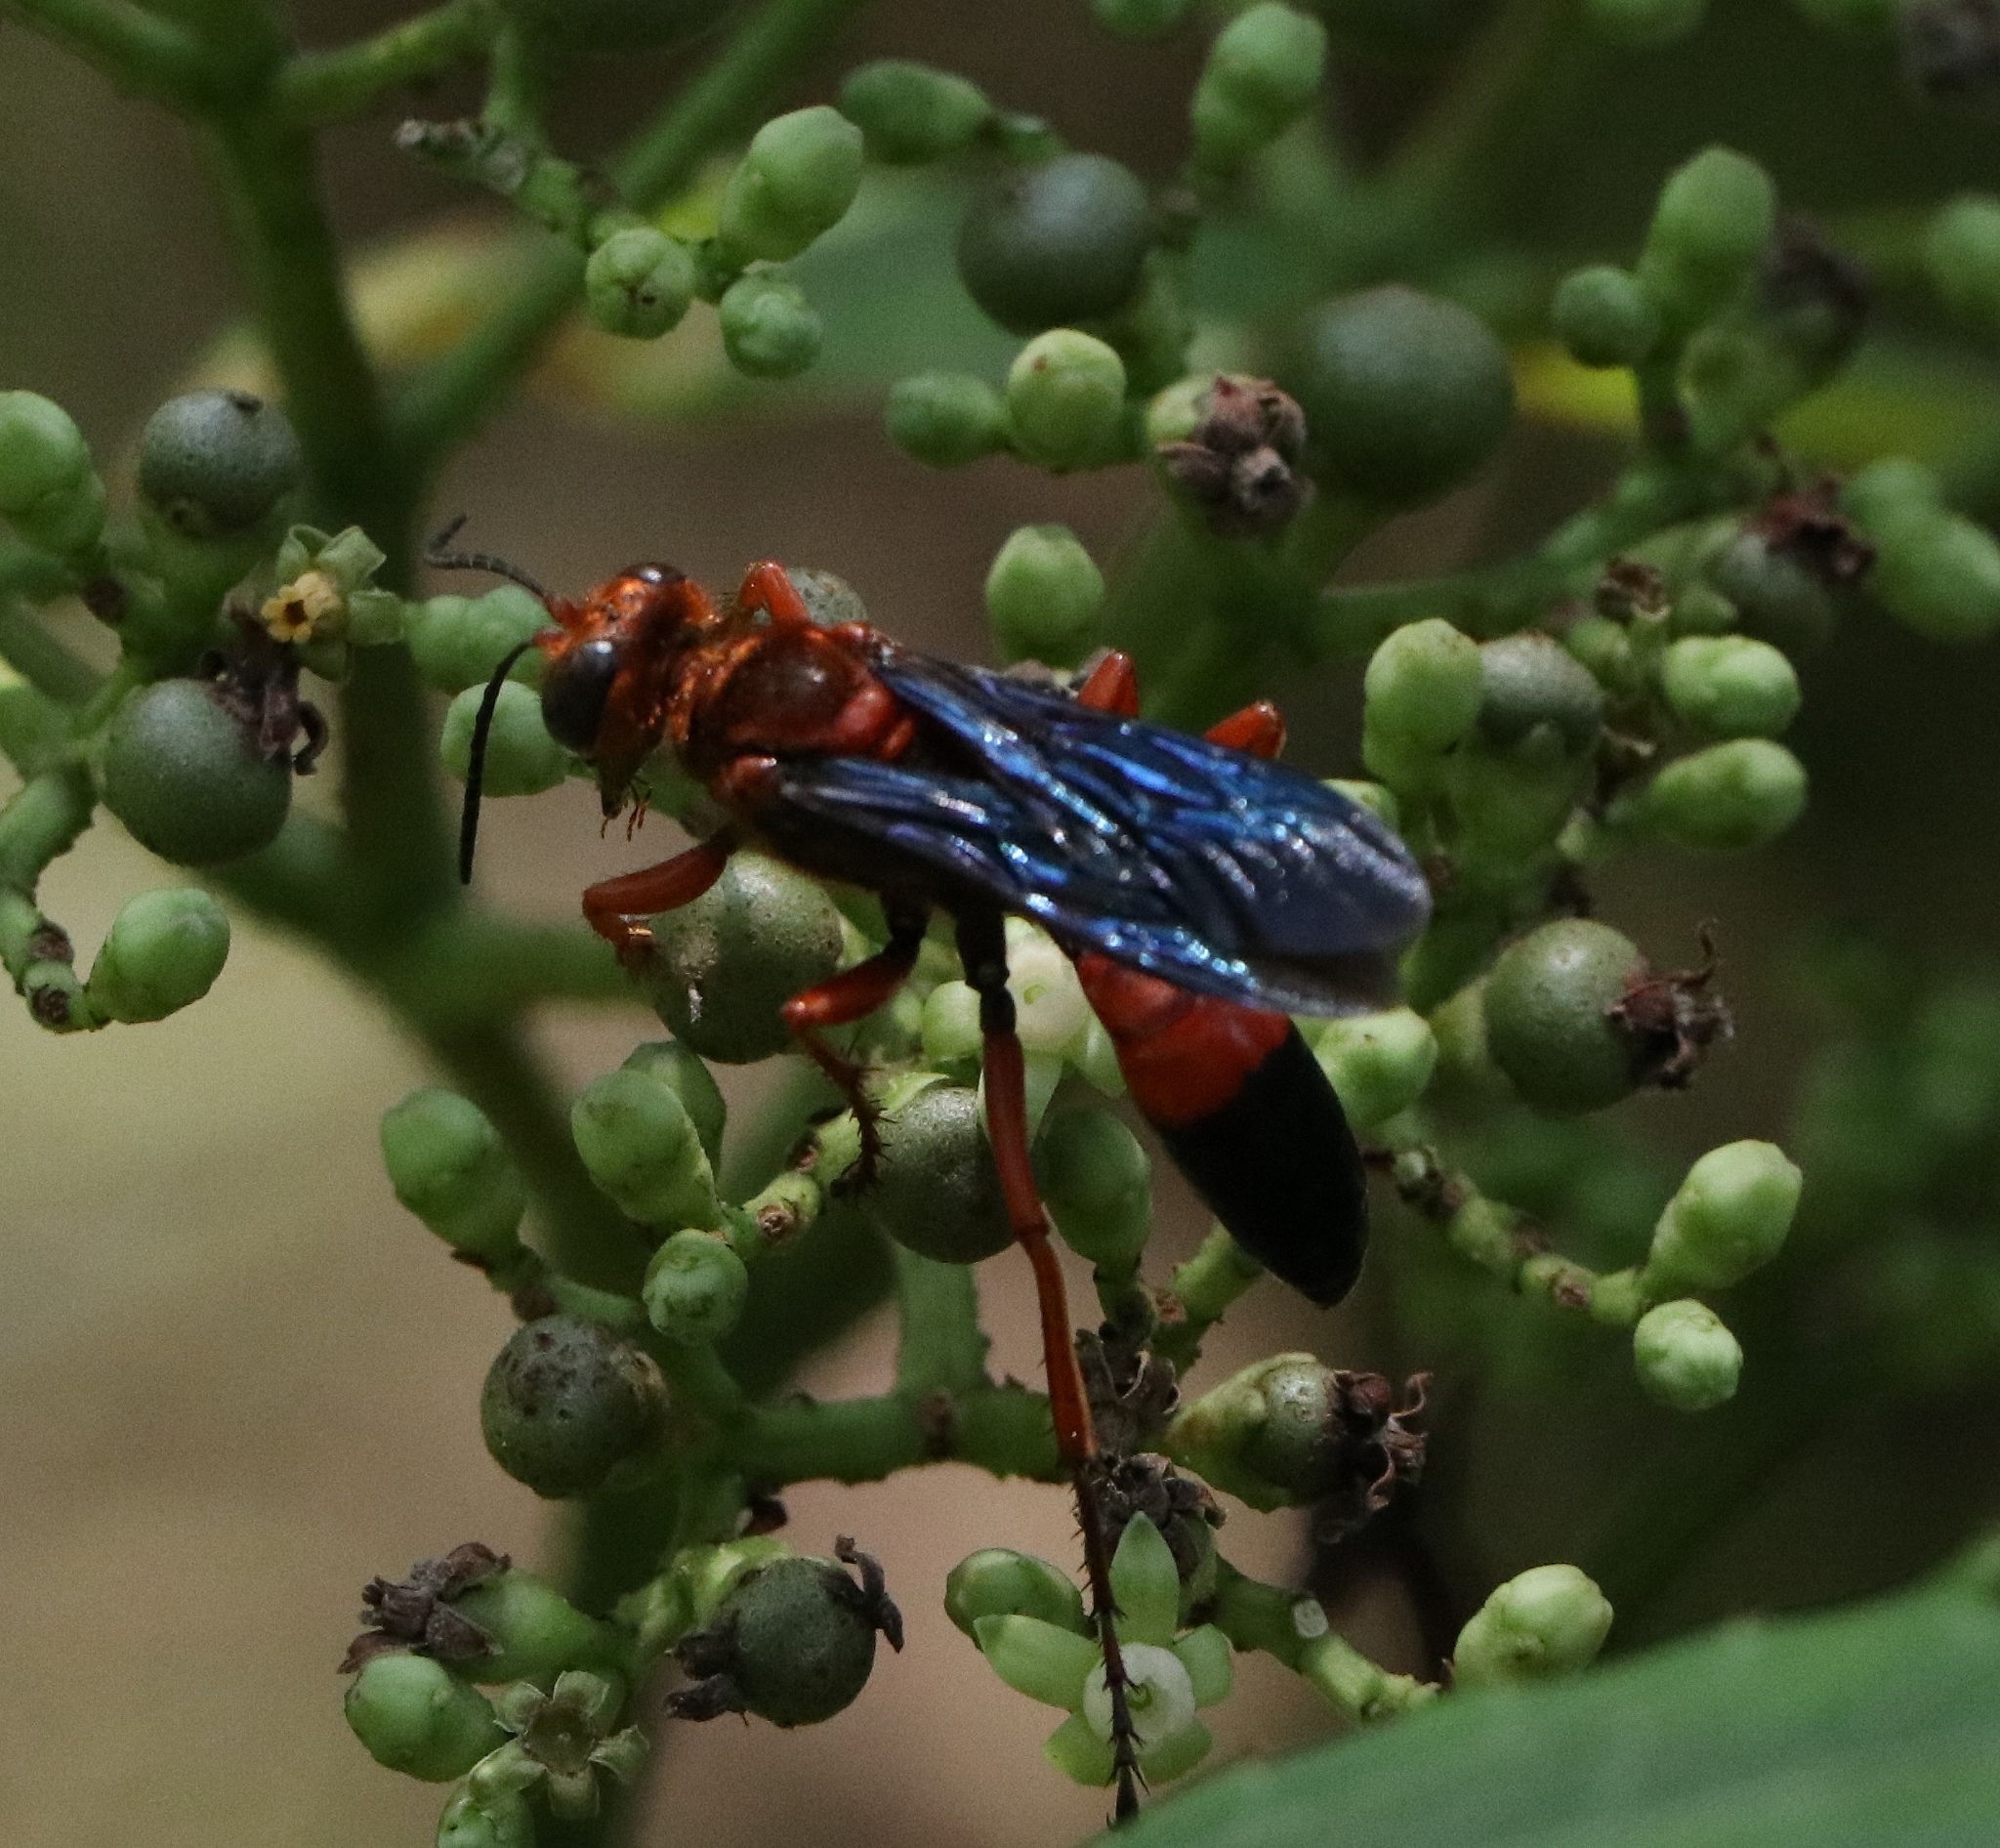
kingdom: Animalia
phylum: Arthropoda
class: Insecta
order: Hymenoptera
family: Sphecidae
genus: Sphex
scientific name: Sphex sericeus
